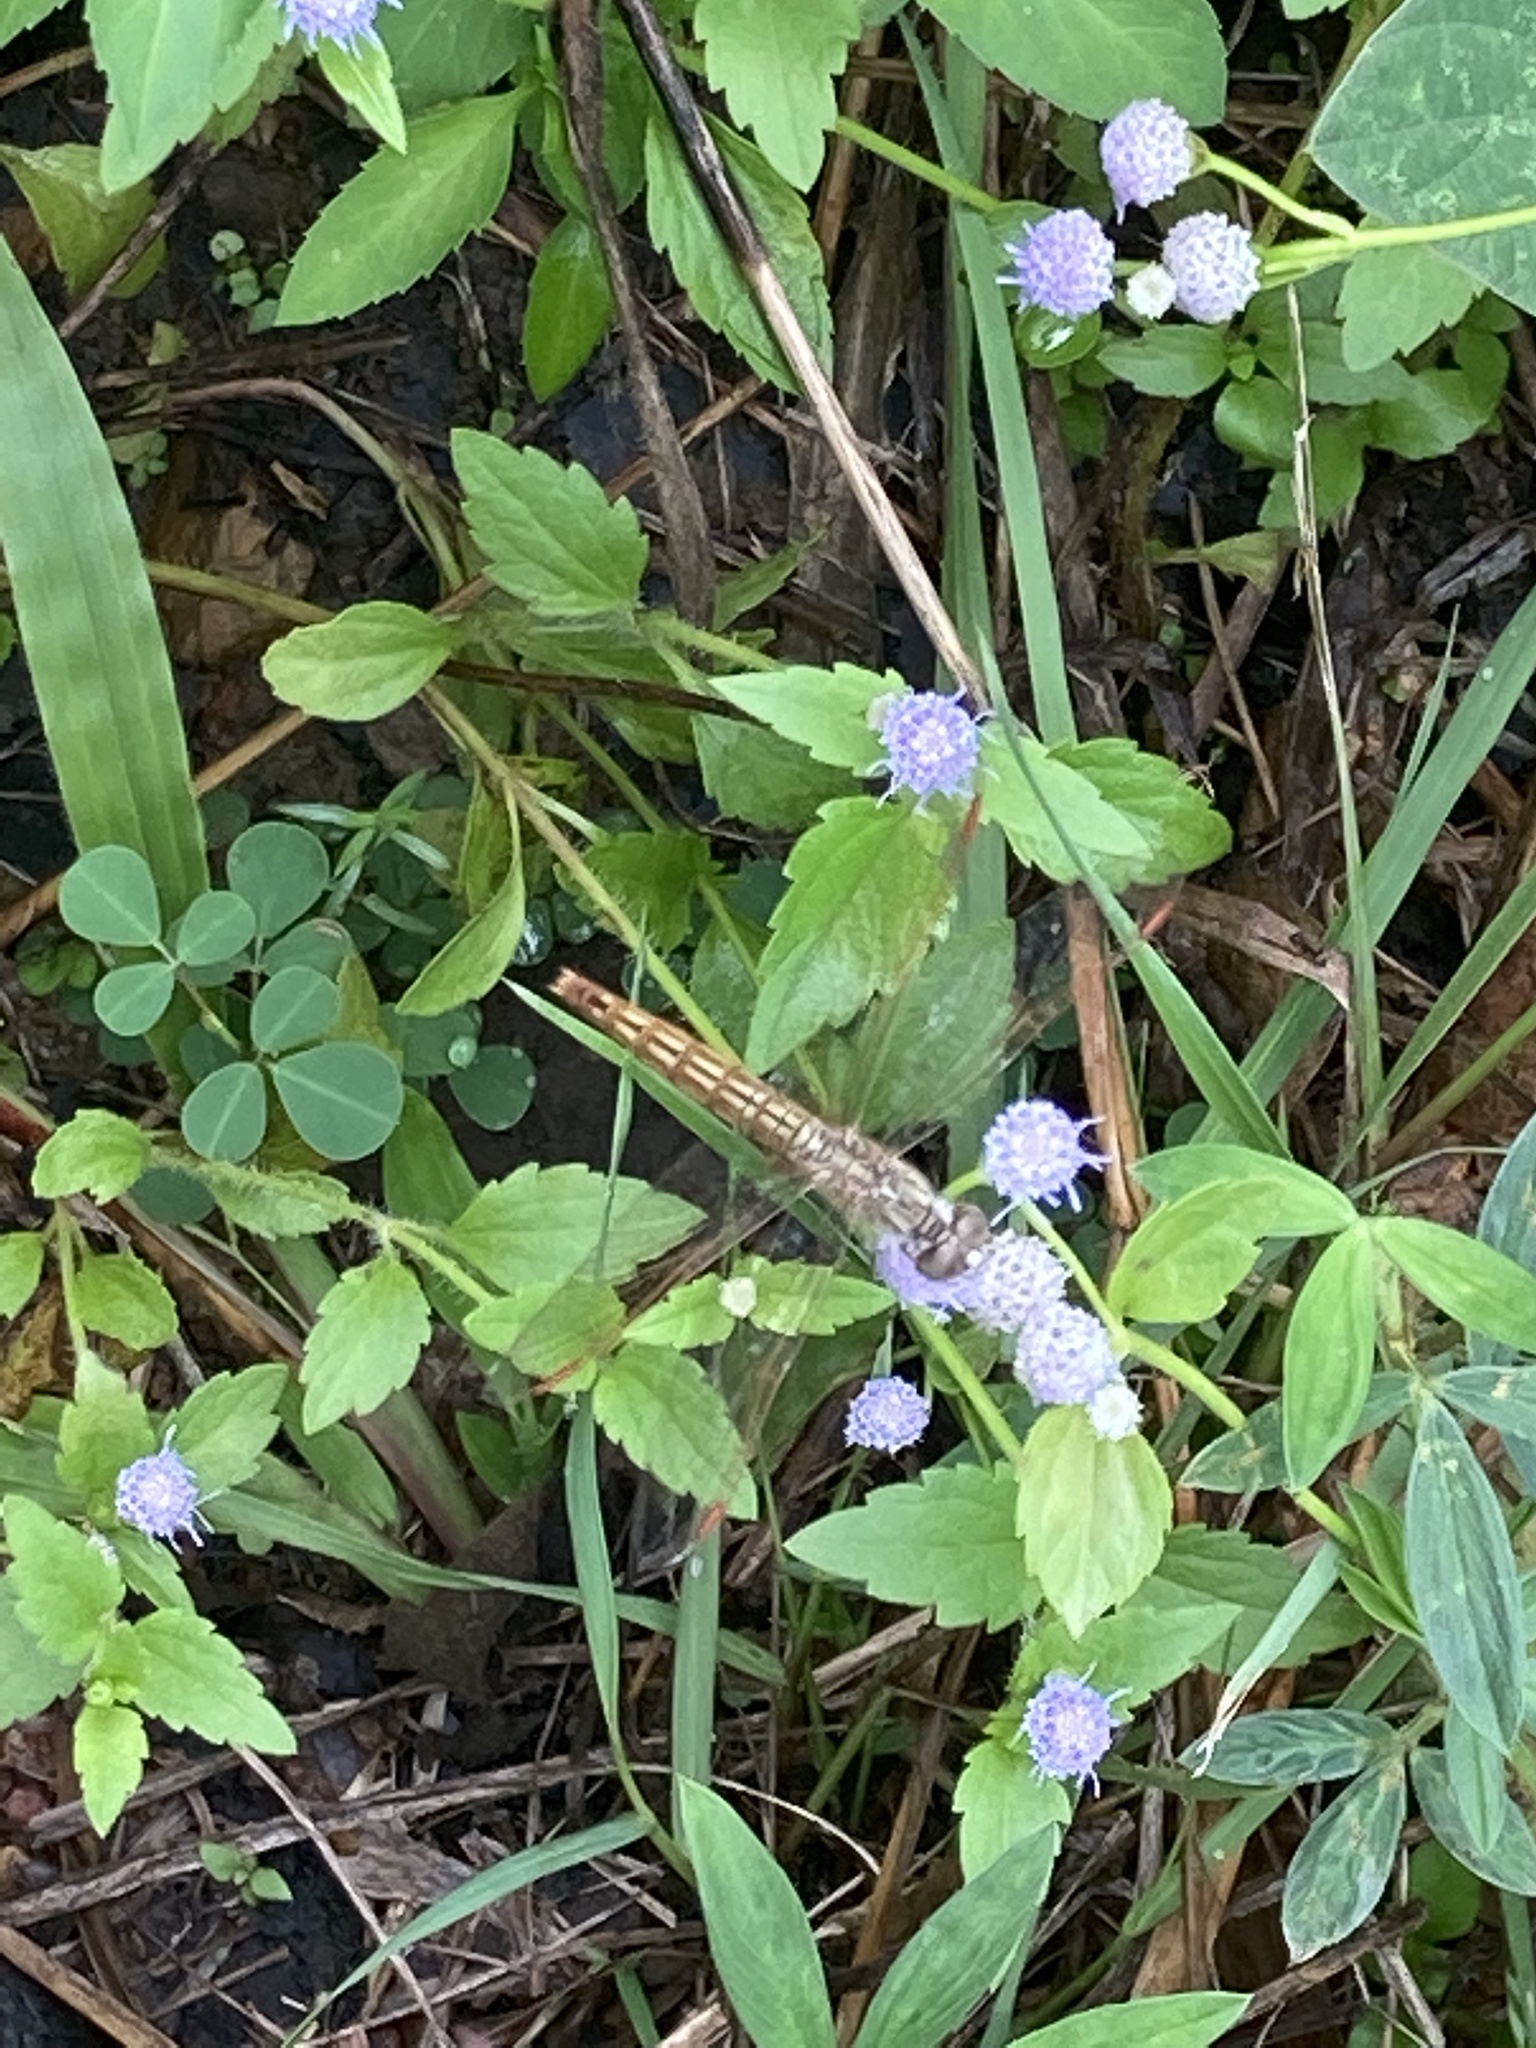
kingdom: Animalia
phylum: Arthropoda
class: Insecta
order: Odonata
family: Libellulidae
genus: Brachythemis
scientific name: Brachythemis contaminata
